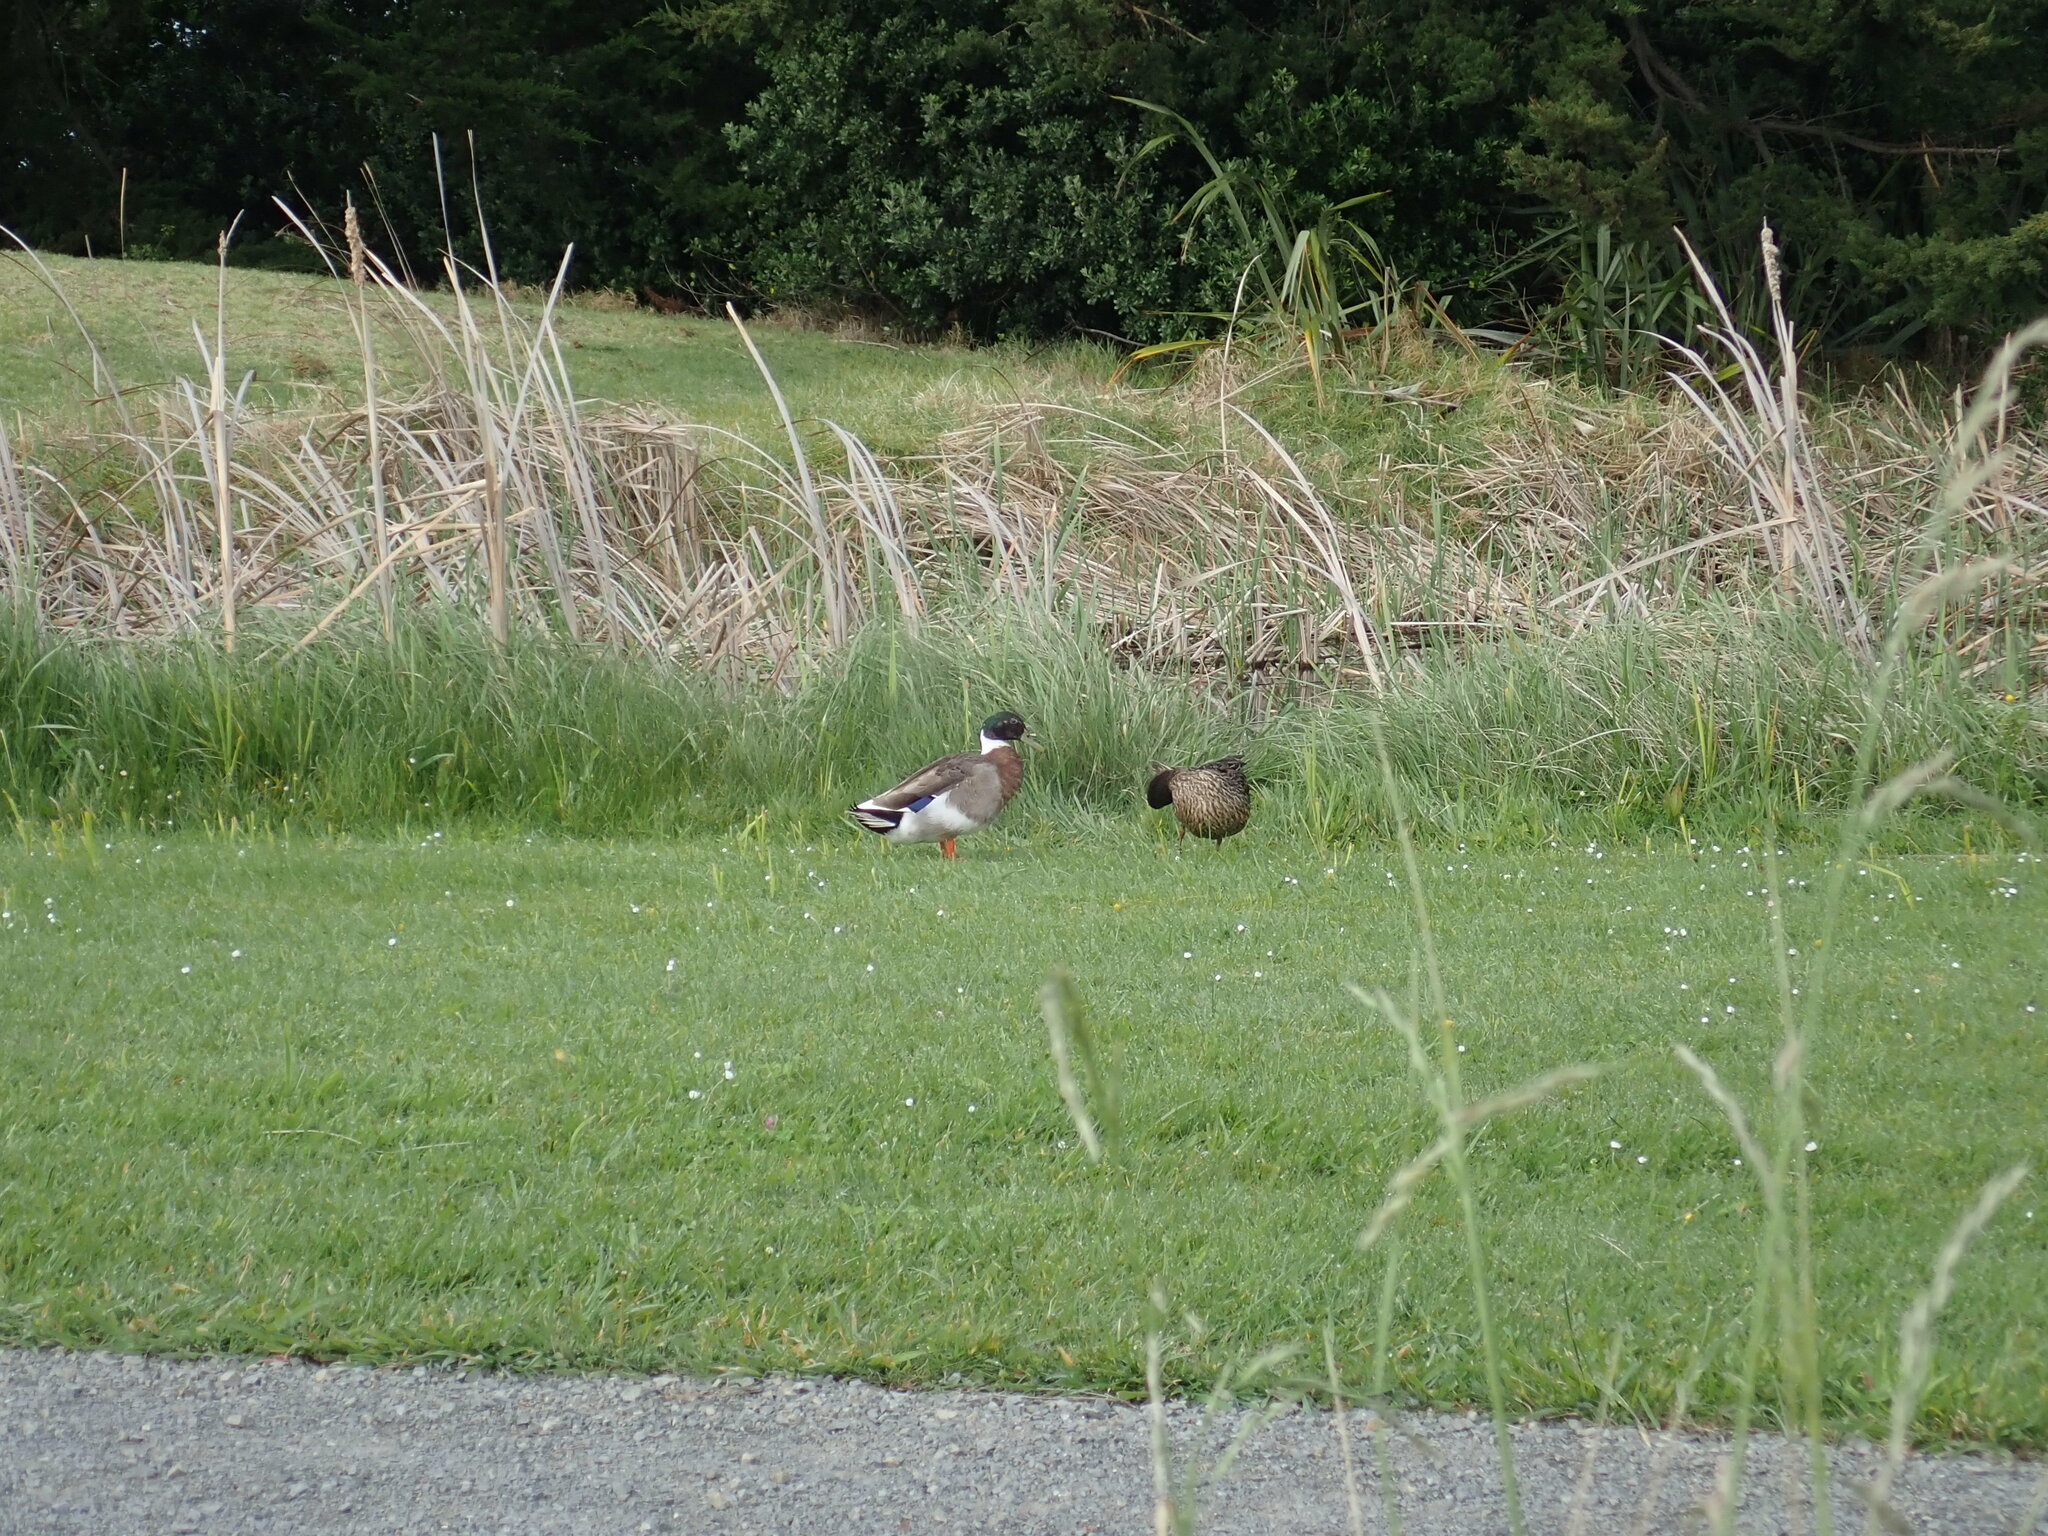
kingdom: Animalia
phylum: Chordata
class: Aves
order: Anseriformes
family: Anatidae
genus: Anas
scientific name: Anas platyrhynchos
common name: Mallard
